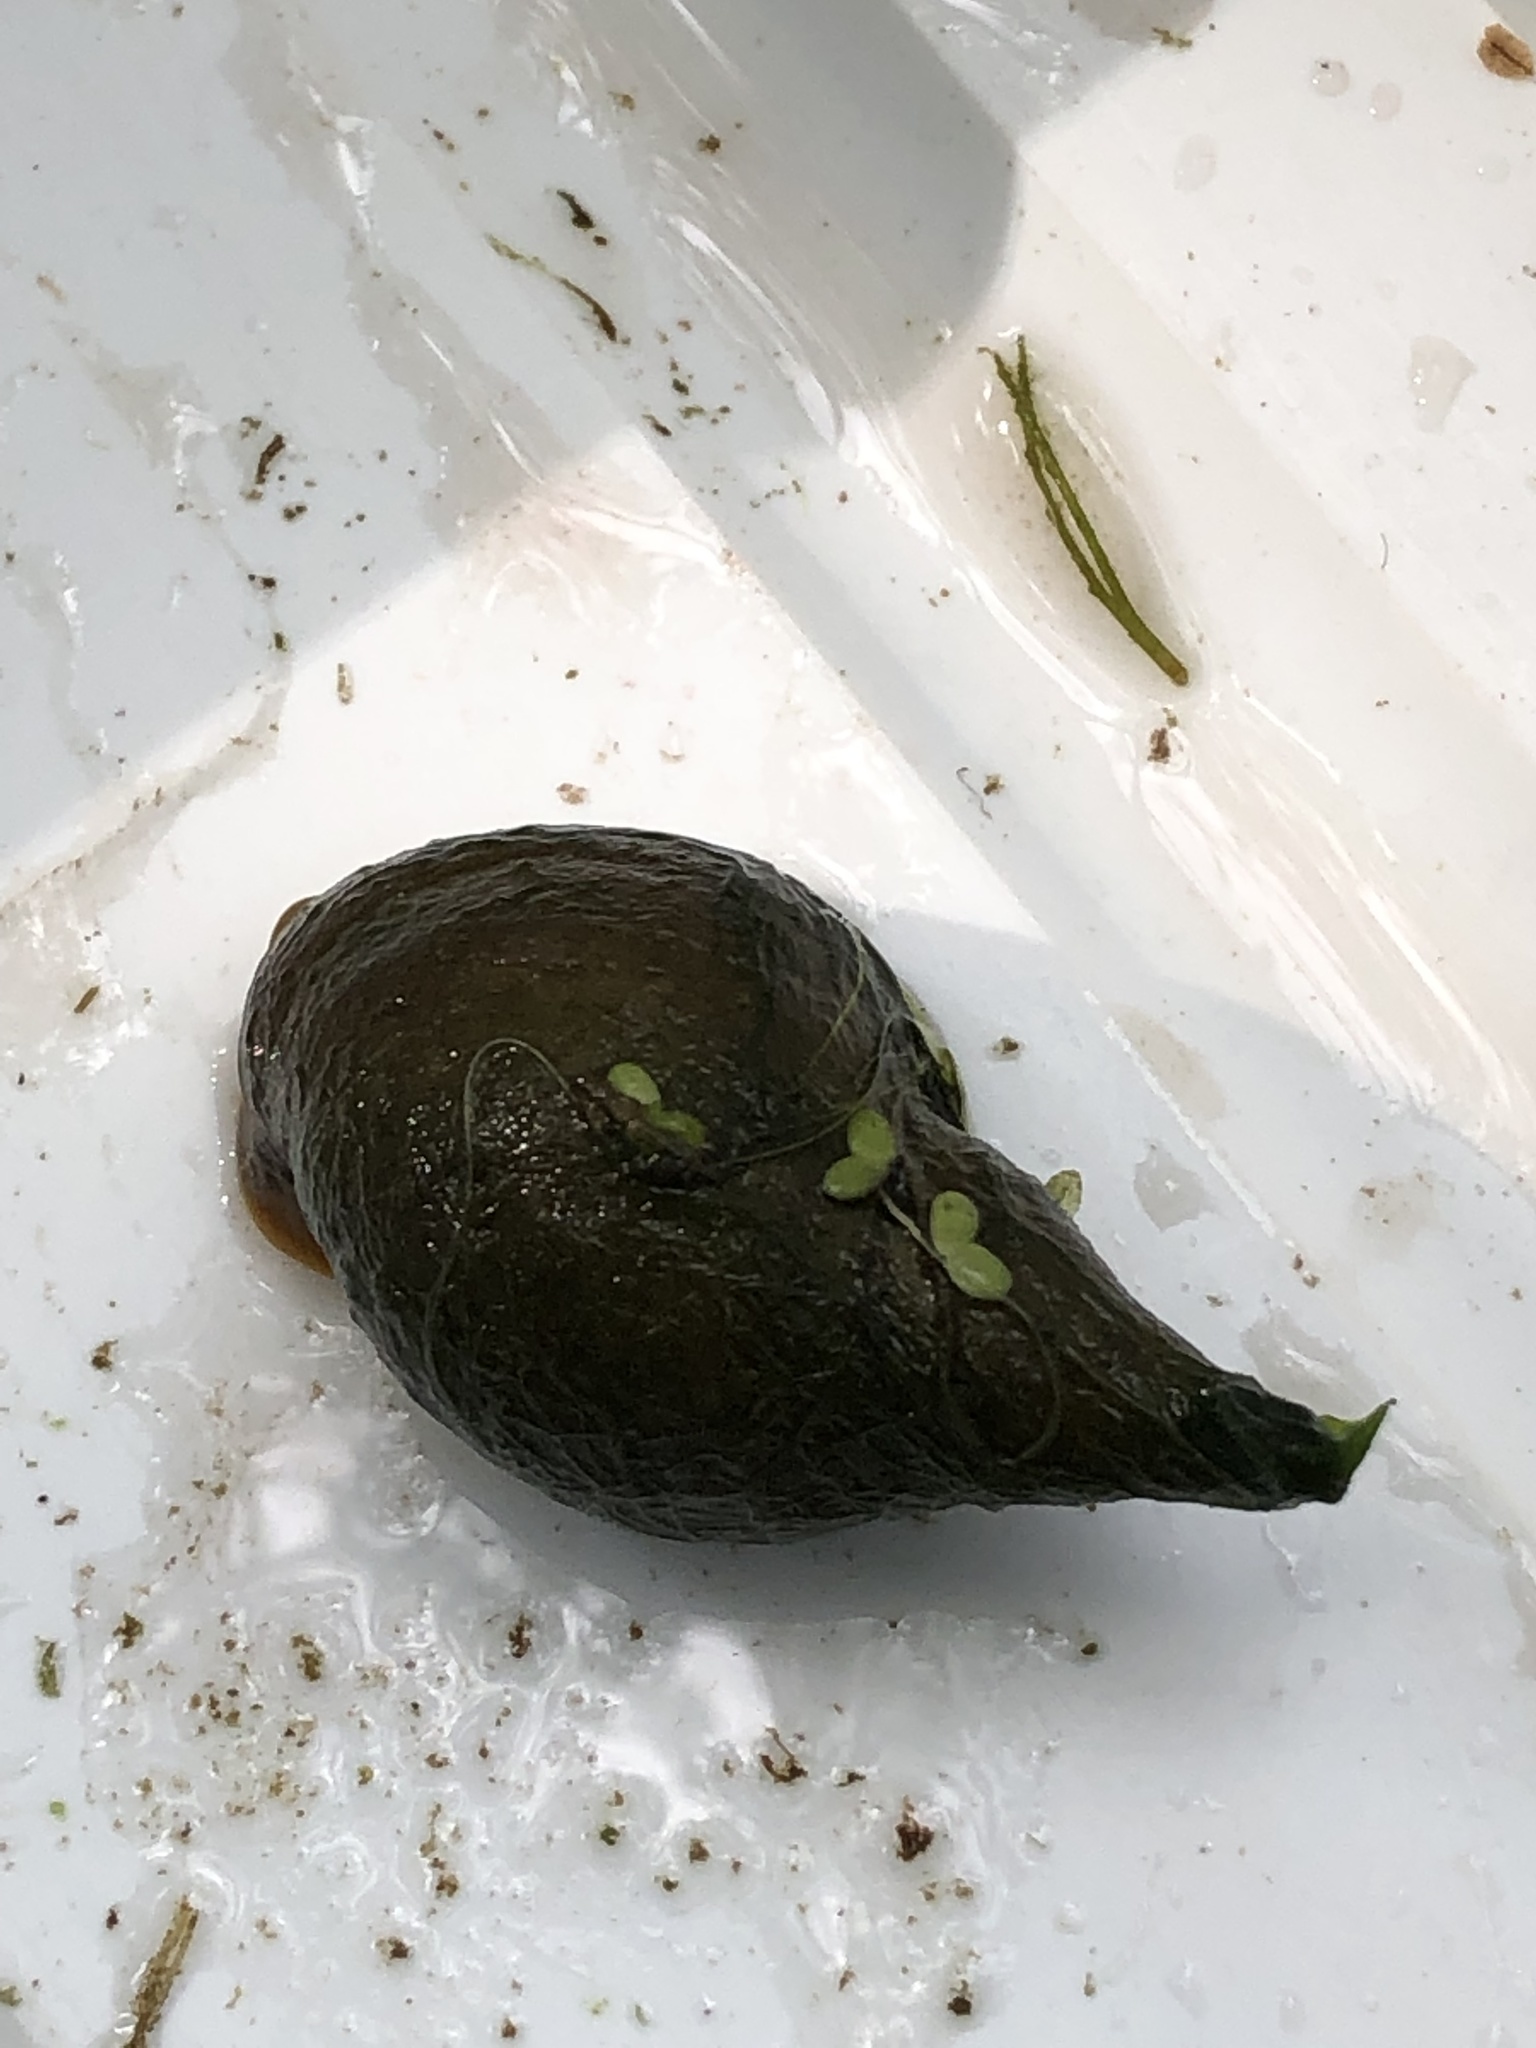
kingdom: Animalia
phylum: Mollusca
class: Gastropoda
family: Lymnaeidae
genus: Lymnaea
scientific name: Lymnaea stagnalis
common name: Great pond snail
